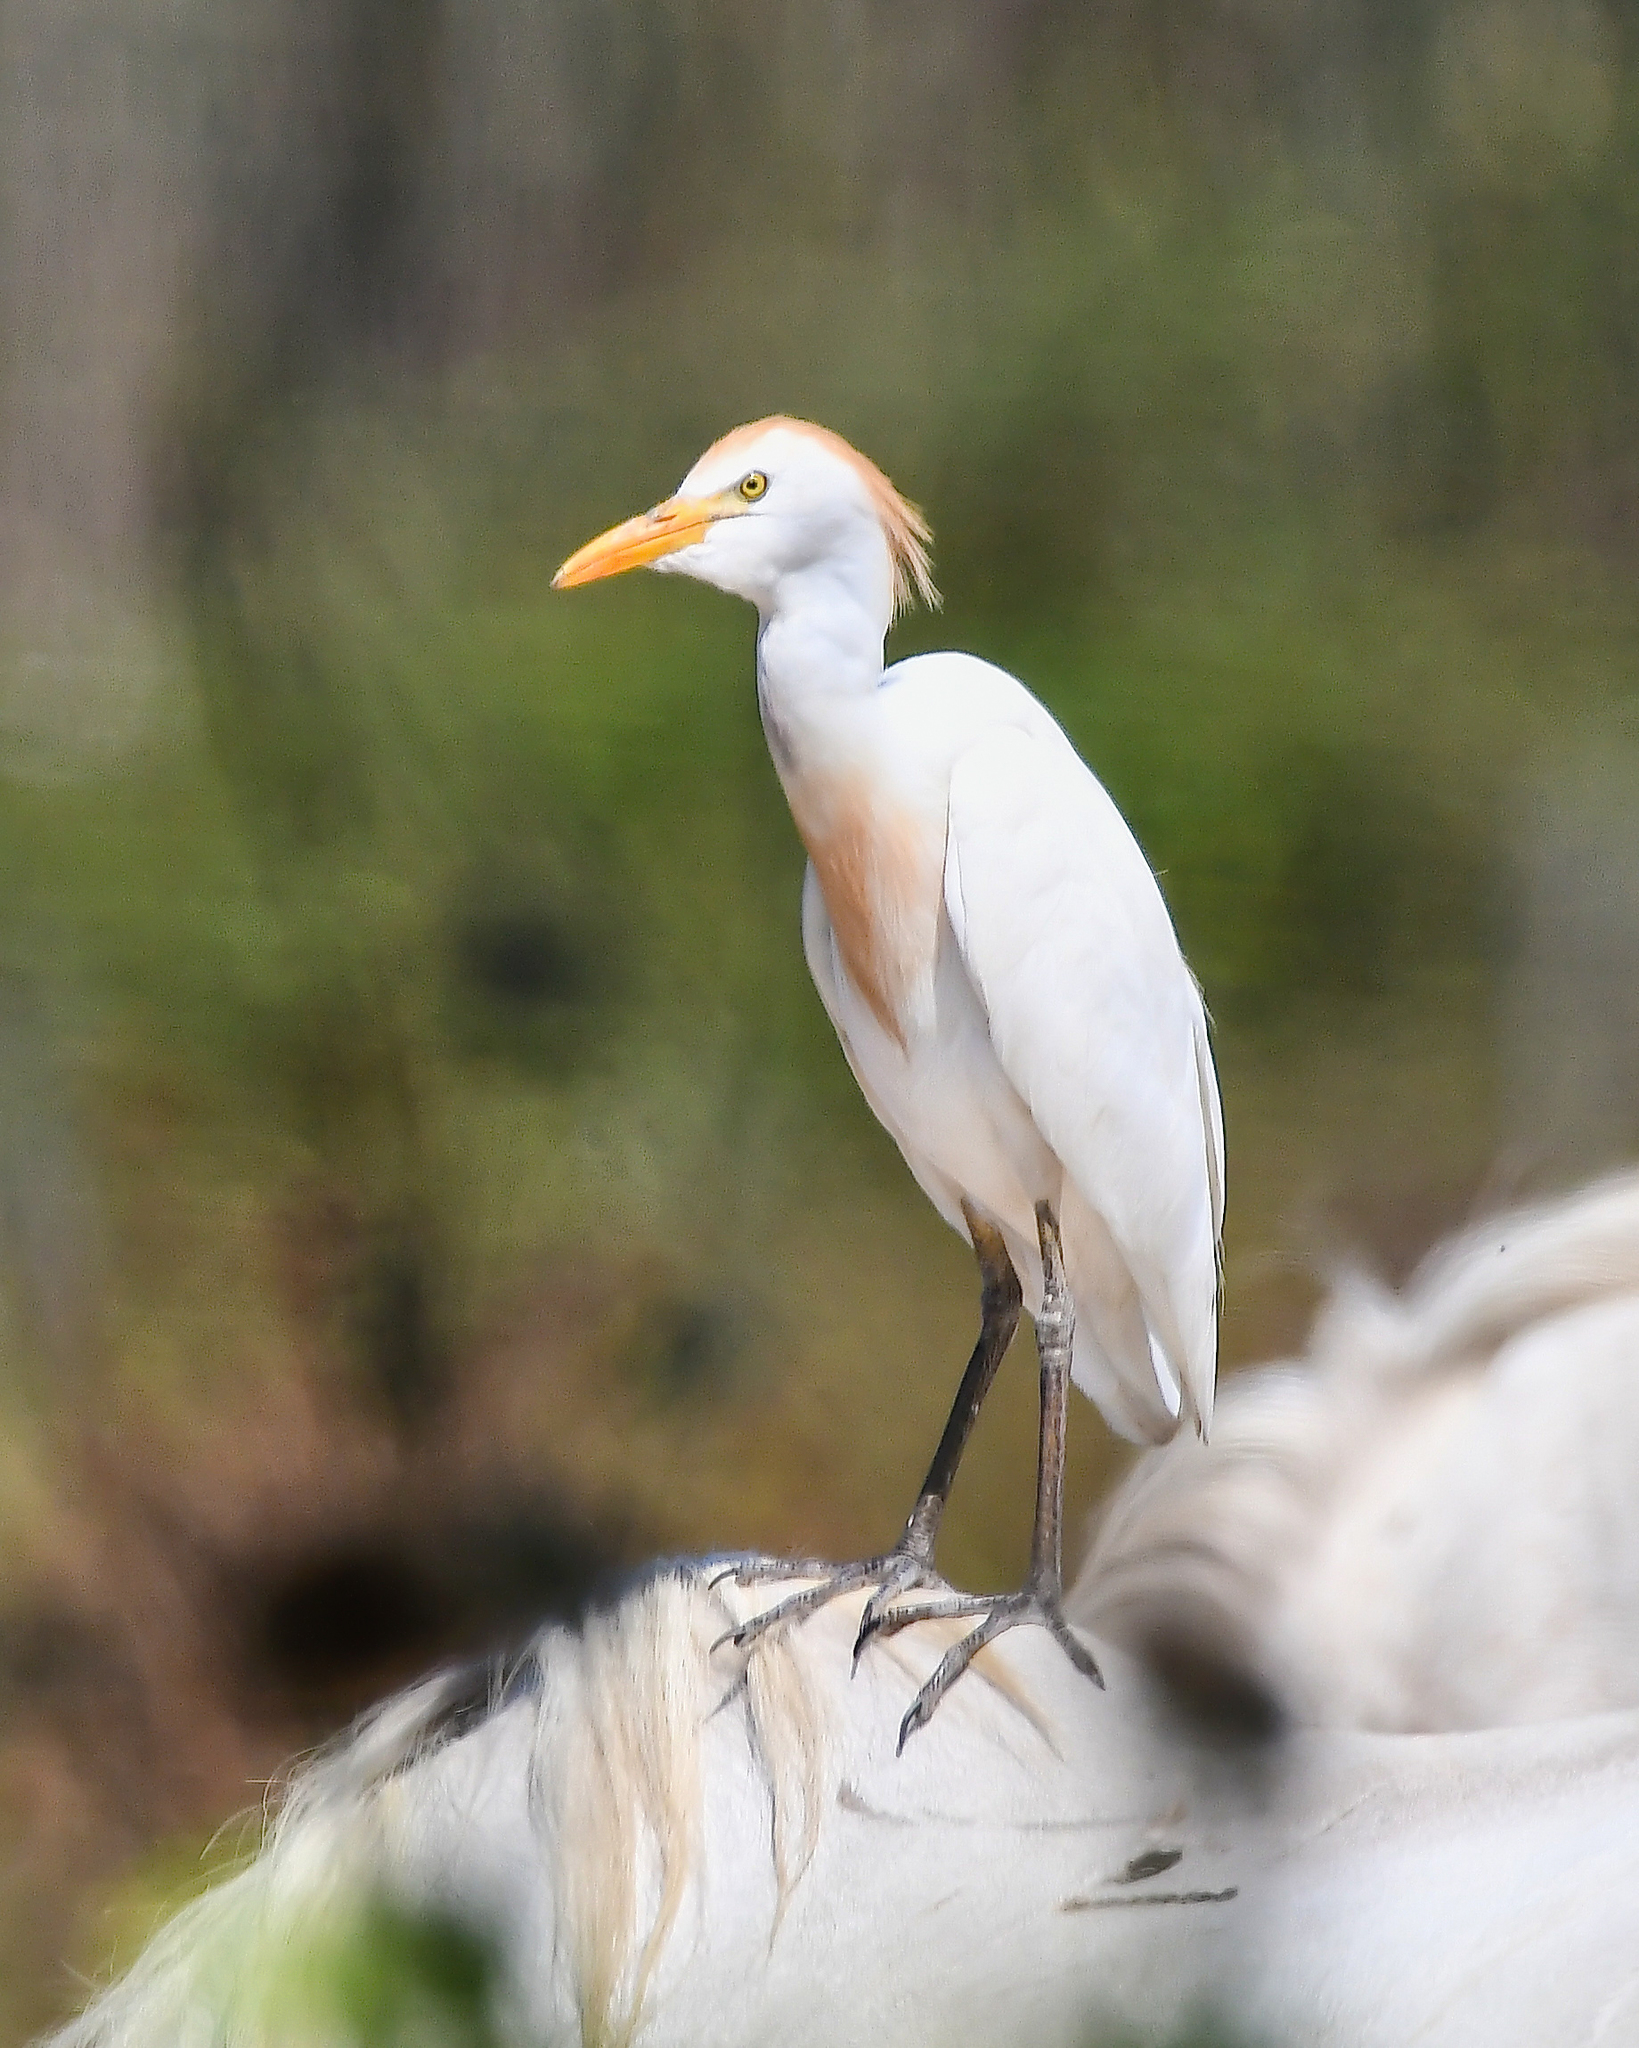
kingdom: Animalia
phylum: Chordata
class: Aves
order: Pelecaniformes
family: Ardeidae
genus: Bubulcus
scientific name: Bubulcus ibis
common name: Cattle egret
